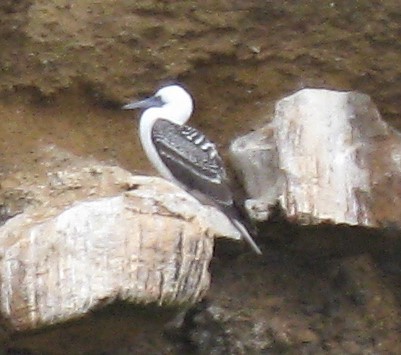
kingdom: Animalia
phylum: Chordata
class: Aves
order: Suliformes
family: Sulidae
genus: Sula
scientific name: Sula variegata
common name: Peruvian booby
